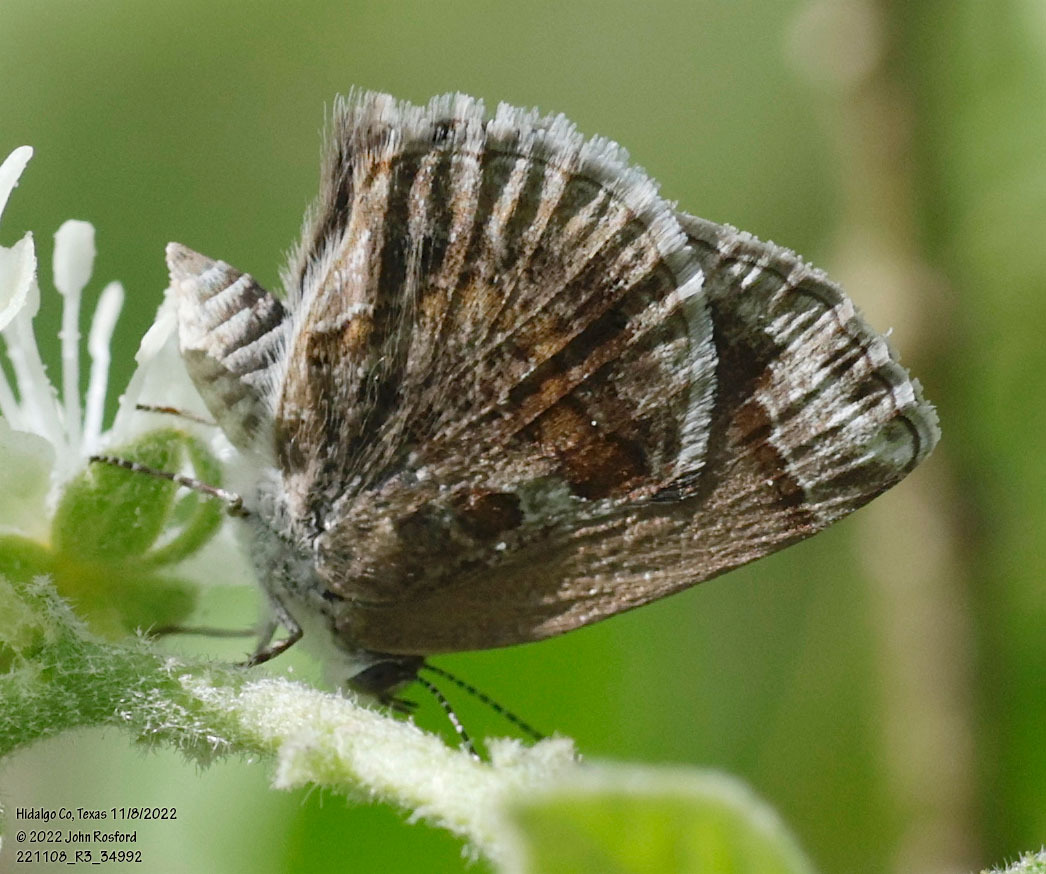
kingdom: Animalia
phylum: Arthropoda
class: Insecta
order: Lepidoptera
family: Lycaenidae
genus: Strymon
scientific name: Strymon bazochii
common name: Lantana scrub-hairstreak
